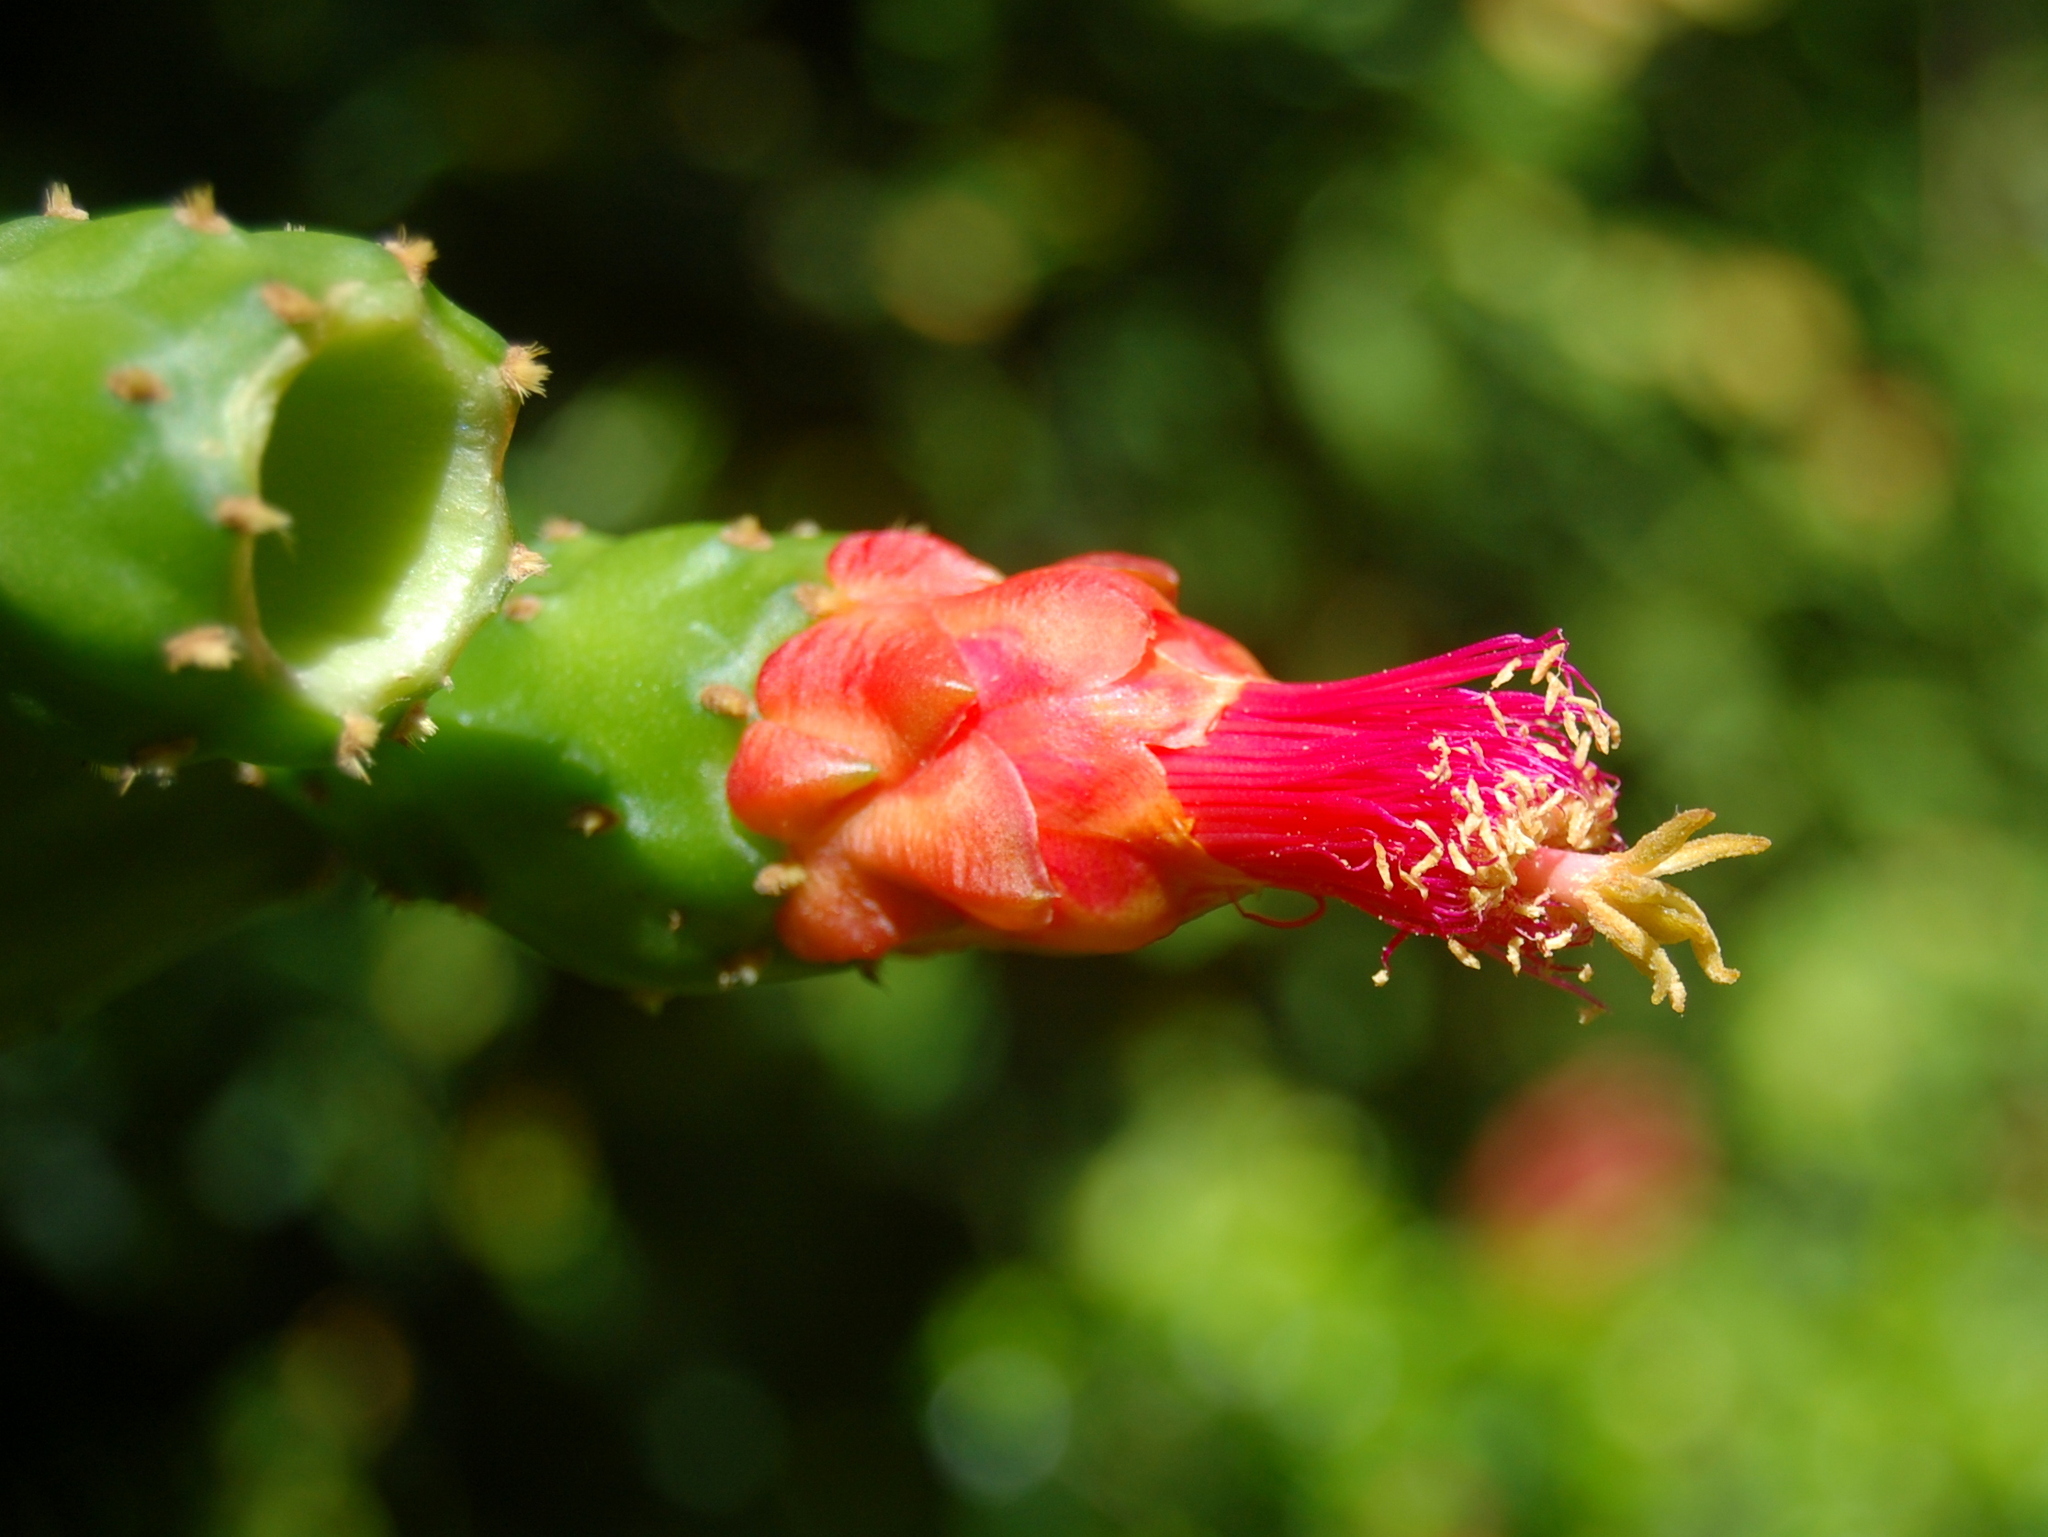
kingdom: Plantae
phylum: Tracheophyta
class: Magnoliopsida
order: Caryophyllales
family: Cactaceae
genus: Opuntia
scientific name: Opuntia cochenillifera
